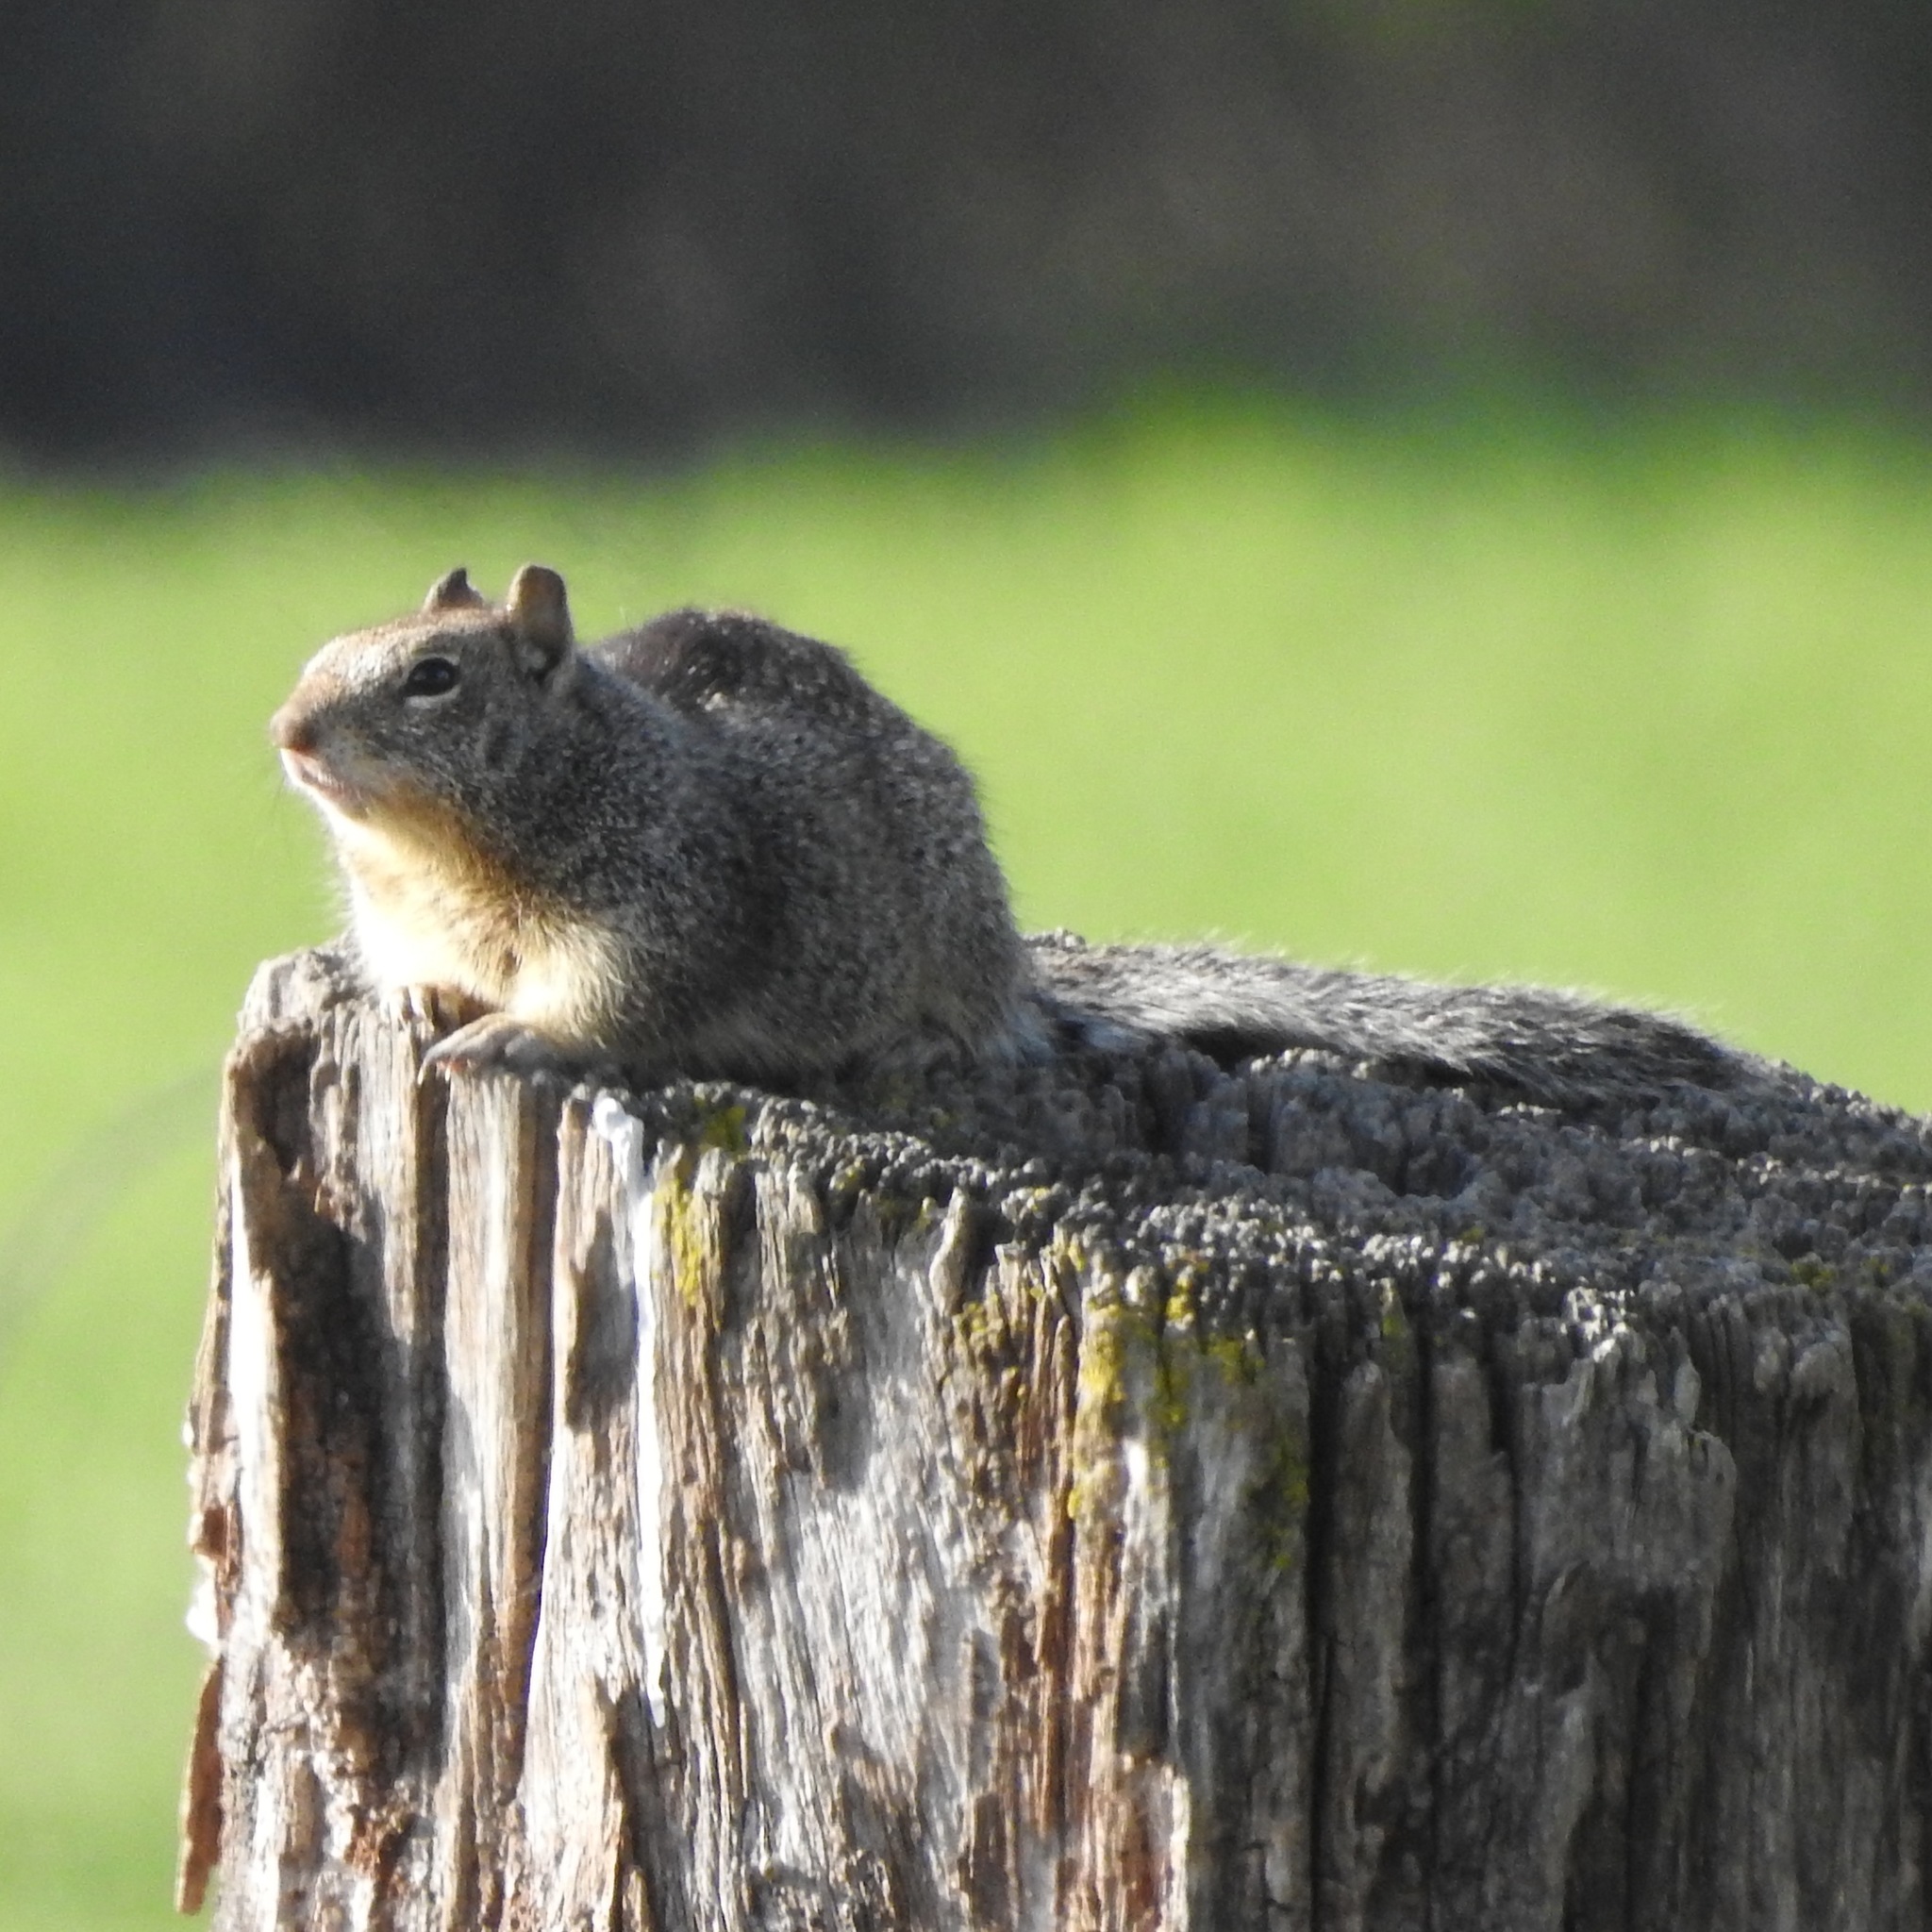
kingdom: Animalia
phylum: Chordata
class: Mammalia
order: Rodentia
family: Sciuridae
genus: Otospermophilus
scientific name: Otospermophilus beecheyi
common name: California ground squirrel
